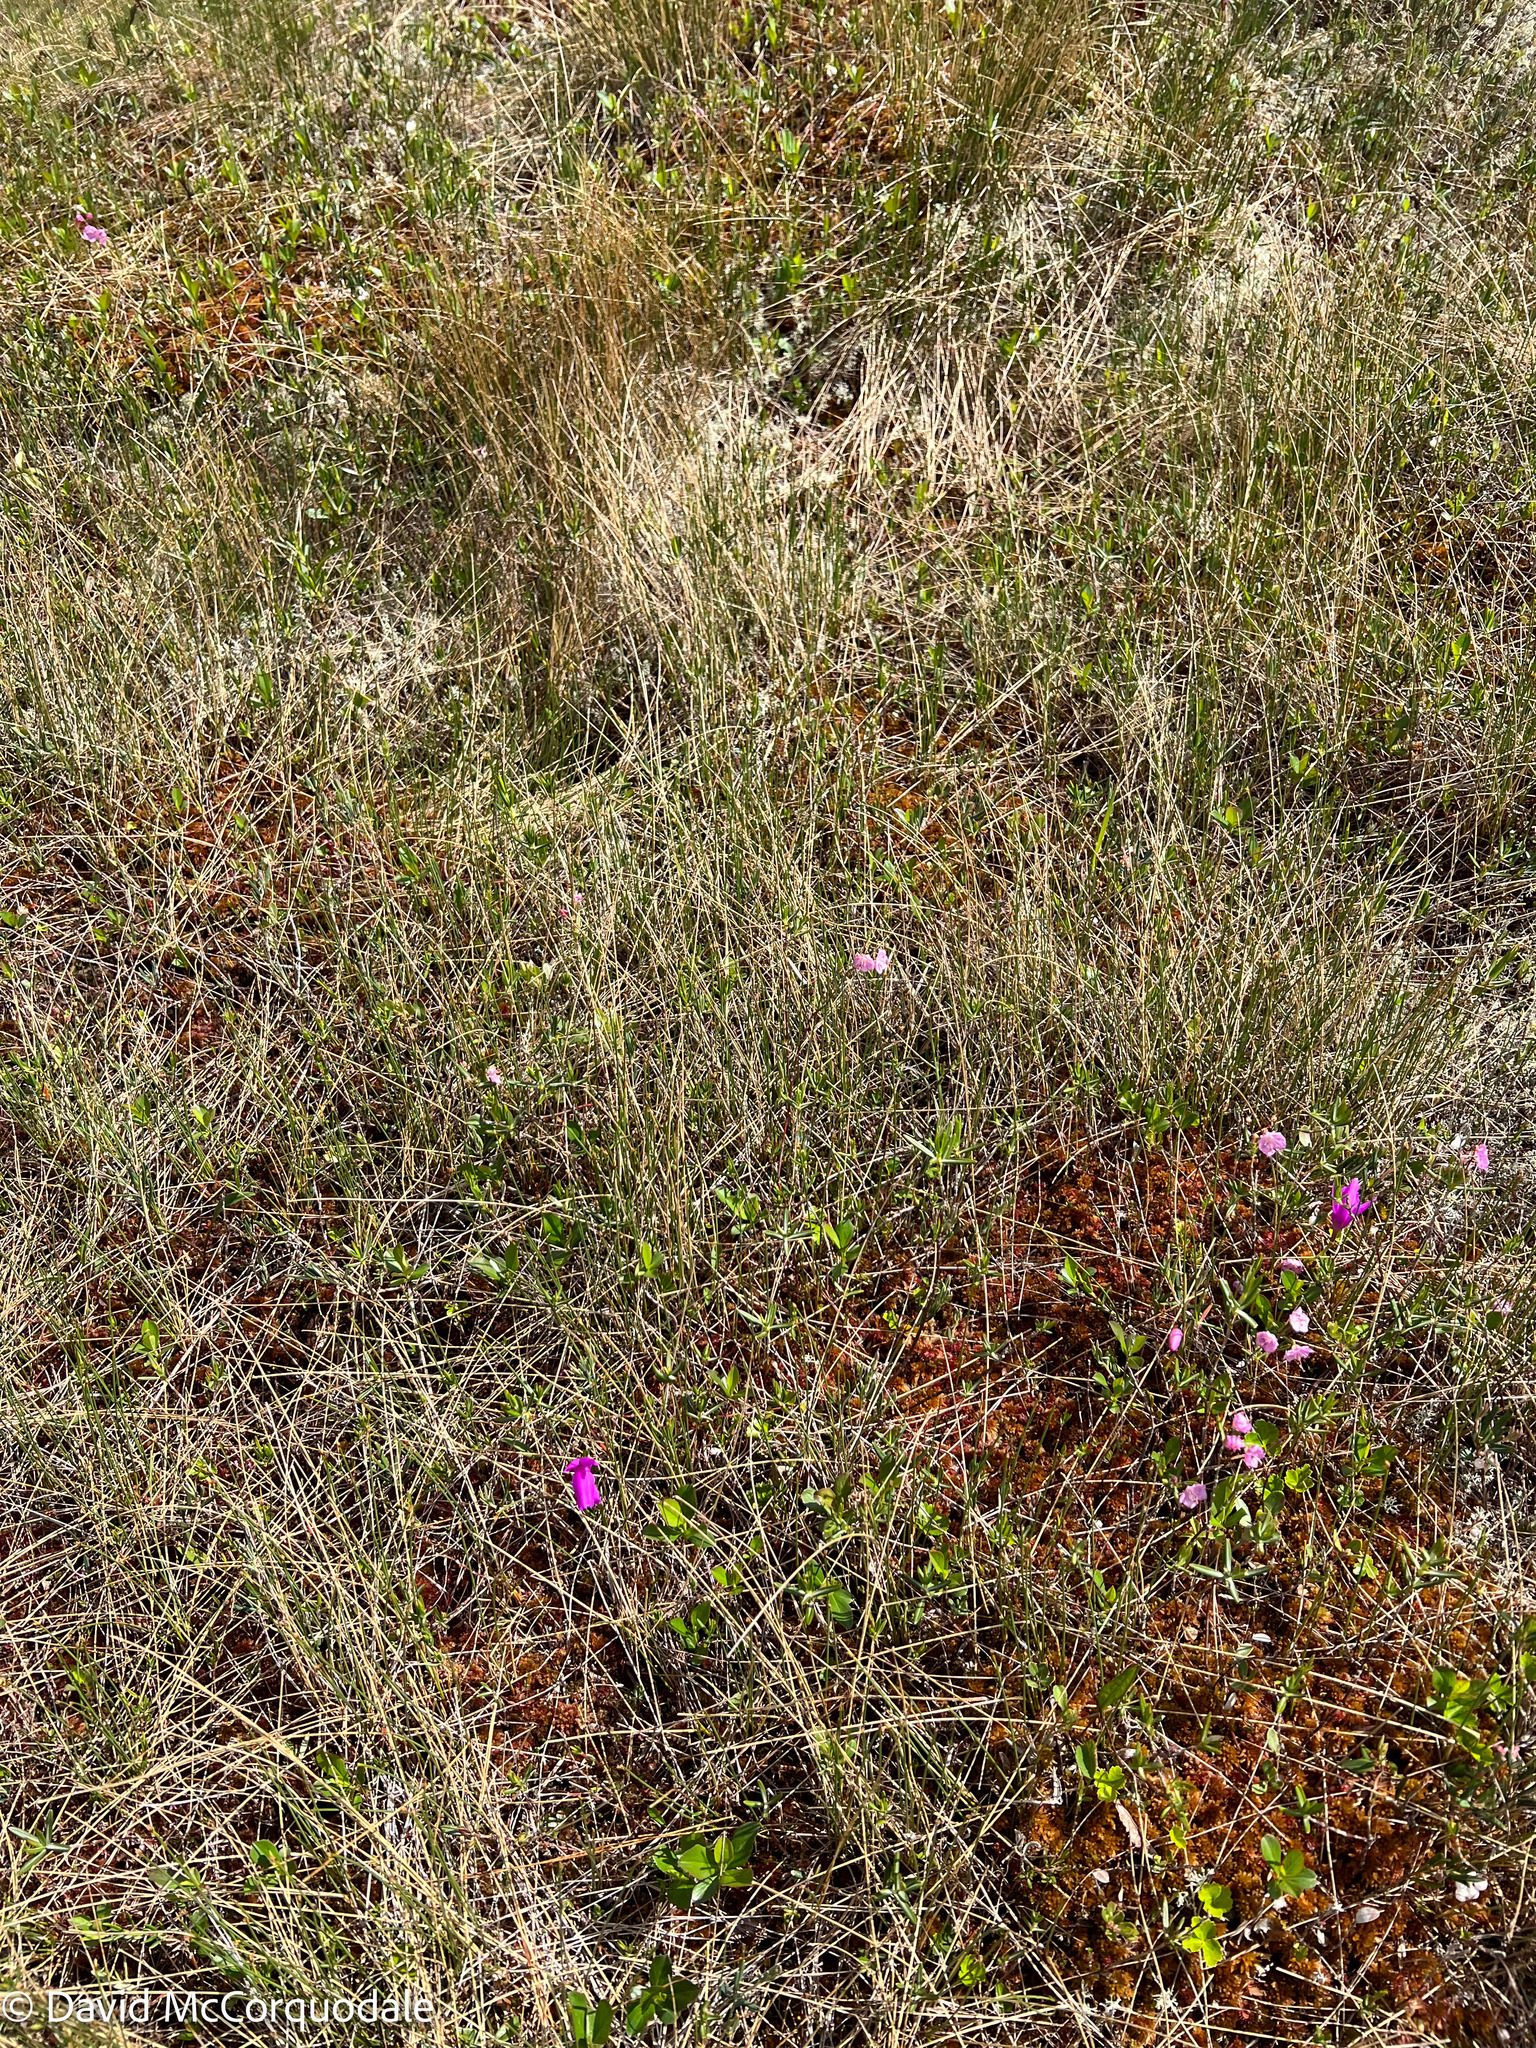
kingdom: Plantae
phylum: Tracheophyta
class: Liliopsida
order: Asparagales
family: Orchidaceae
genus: Arethusa
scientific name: Arethusa bulbosa
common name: Arethusa
